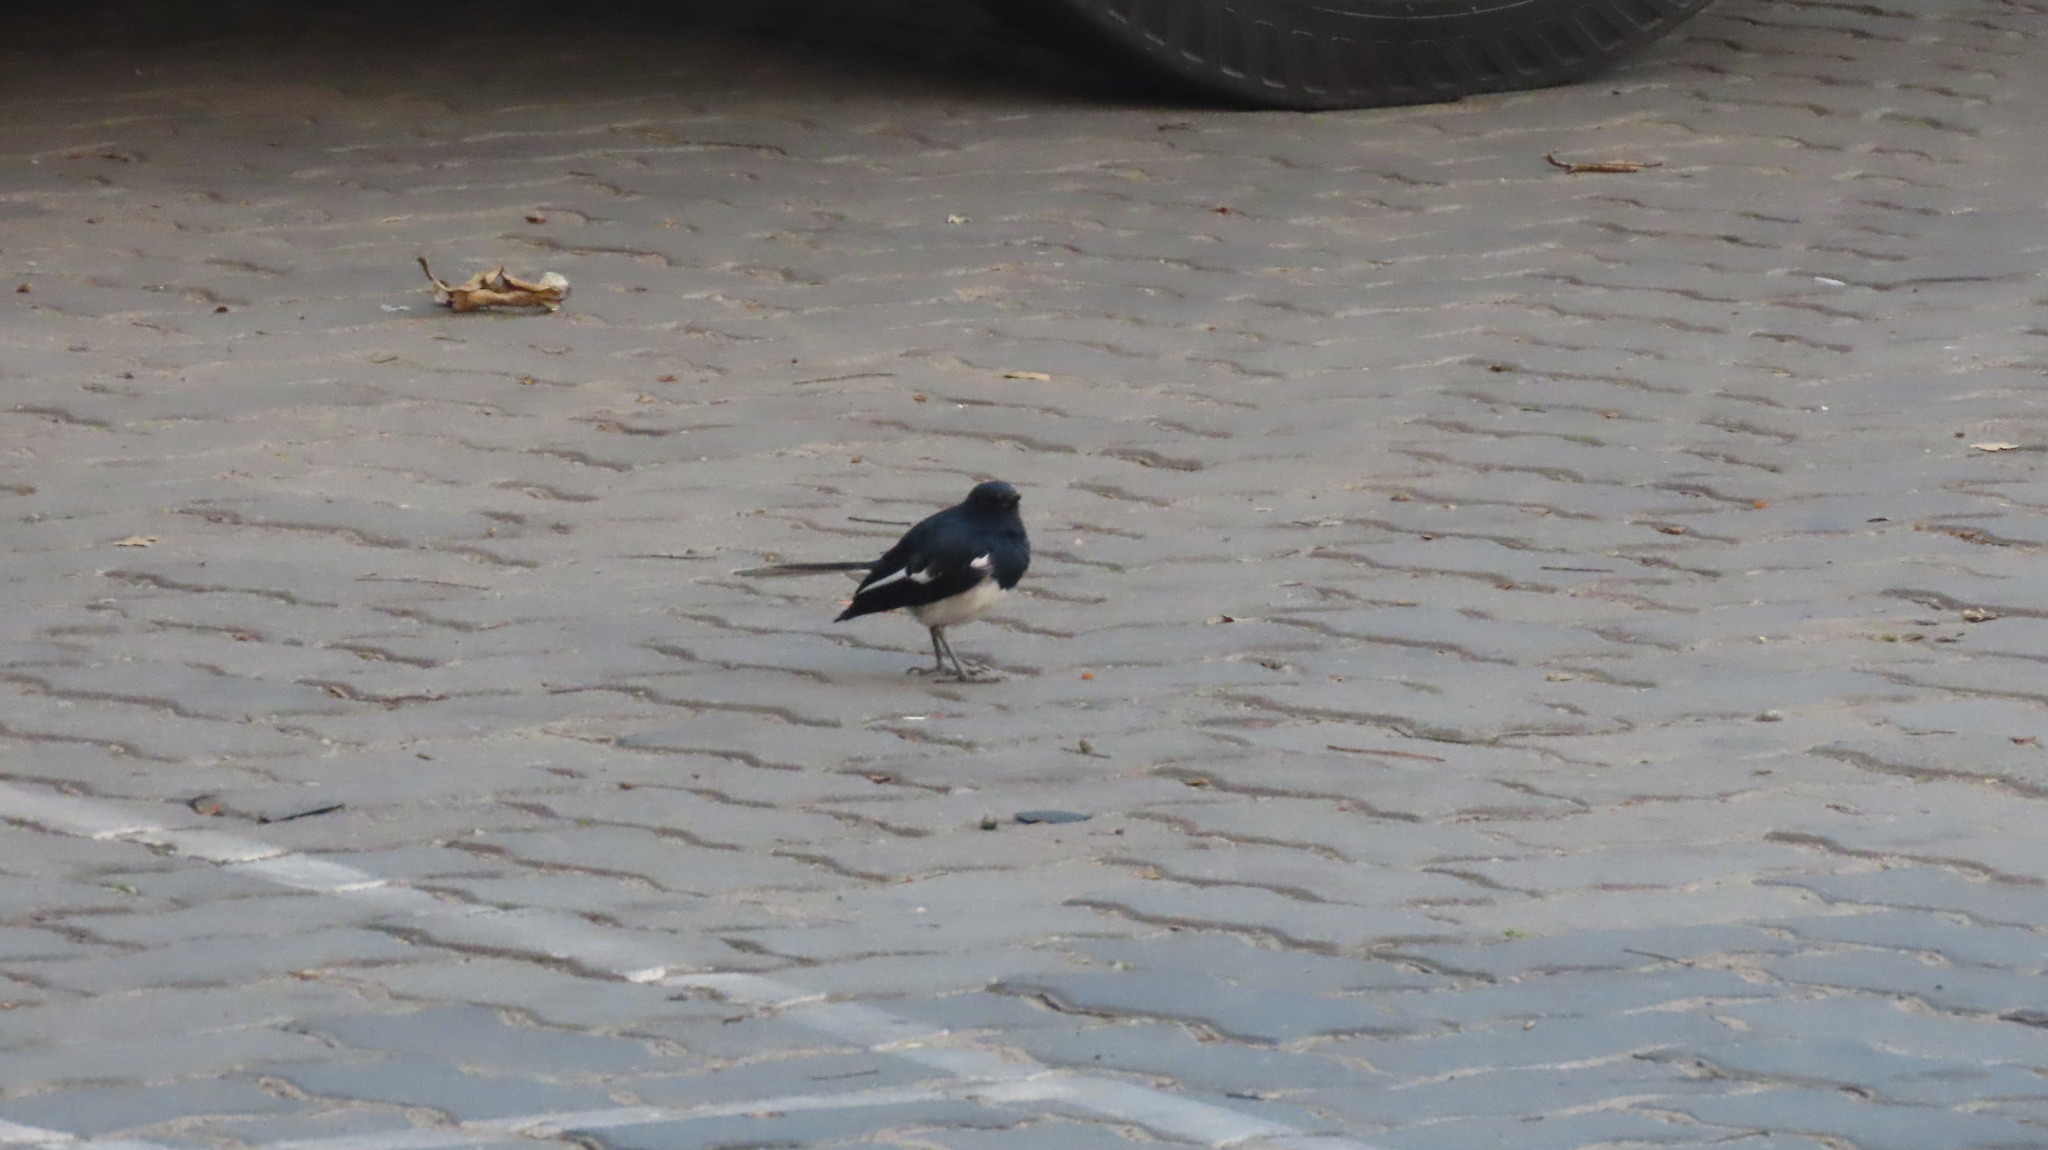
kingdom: Animalia
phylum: Chordata
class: Aves
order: Passeriformes
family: Muscicapidae
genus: Copsychus
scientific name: Copsychus saularis
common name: Oriental magpie-robin
